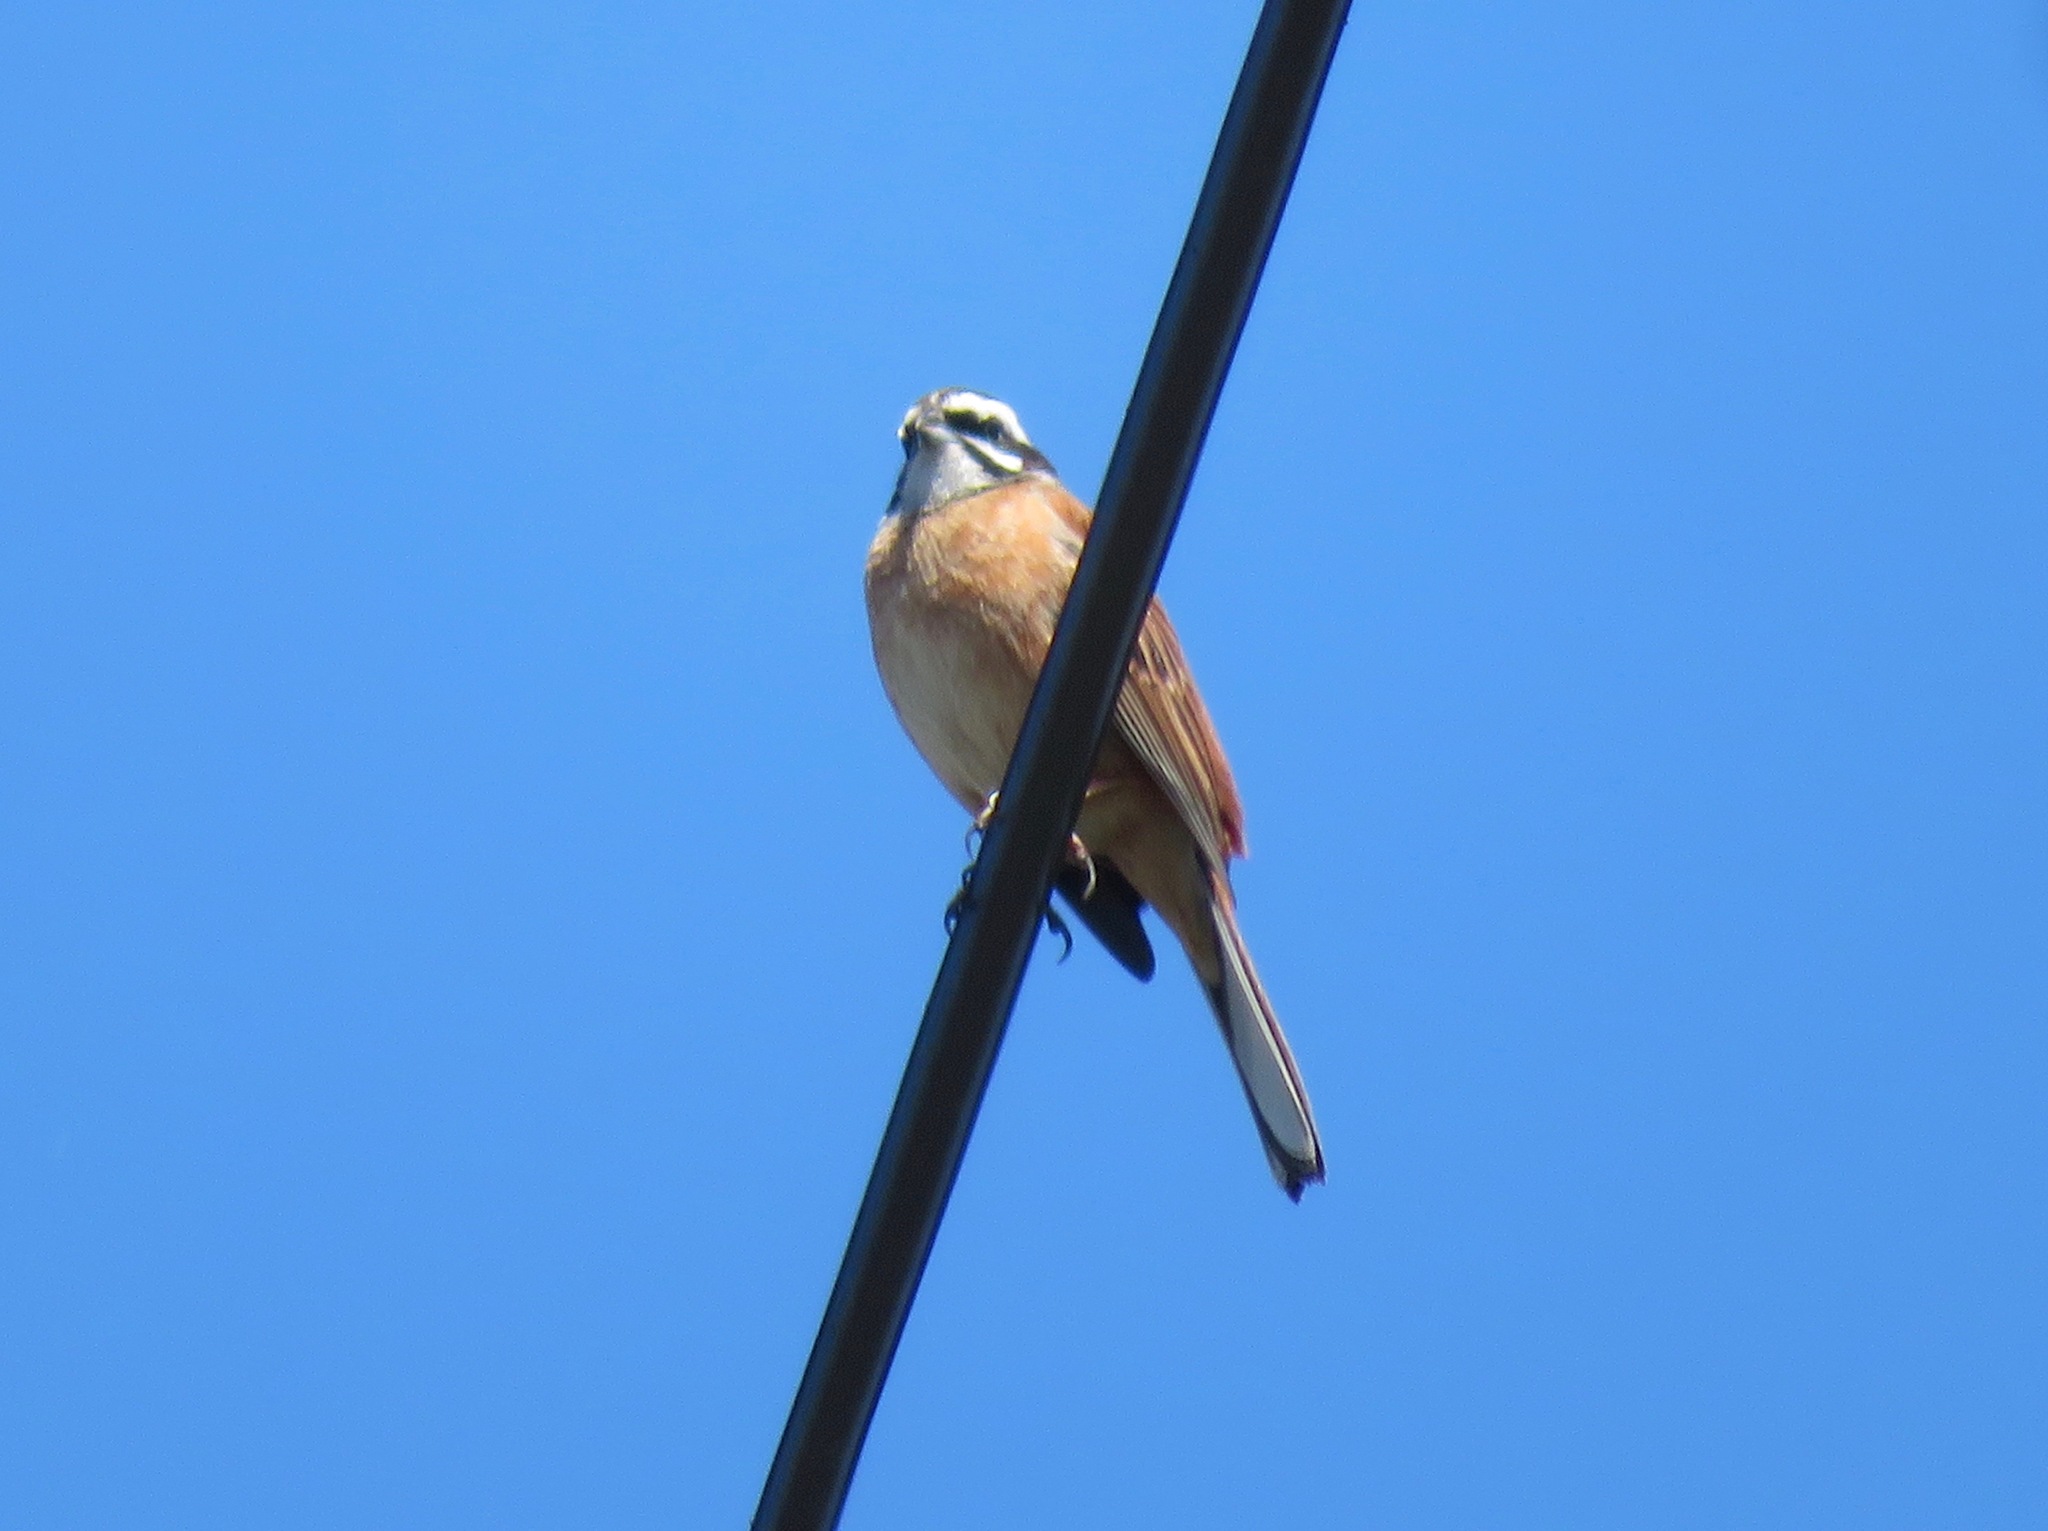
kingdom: Animalia
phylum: Chordata
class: Aves
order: Passeriformes
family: Emberizidae
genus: Emberiza
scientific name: Emberiza cioides
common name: Meadow bunting
